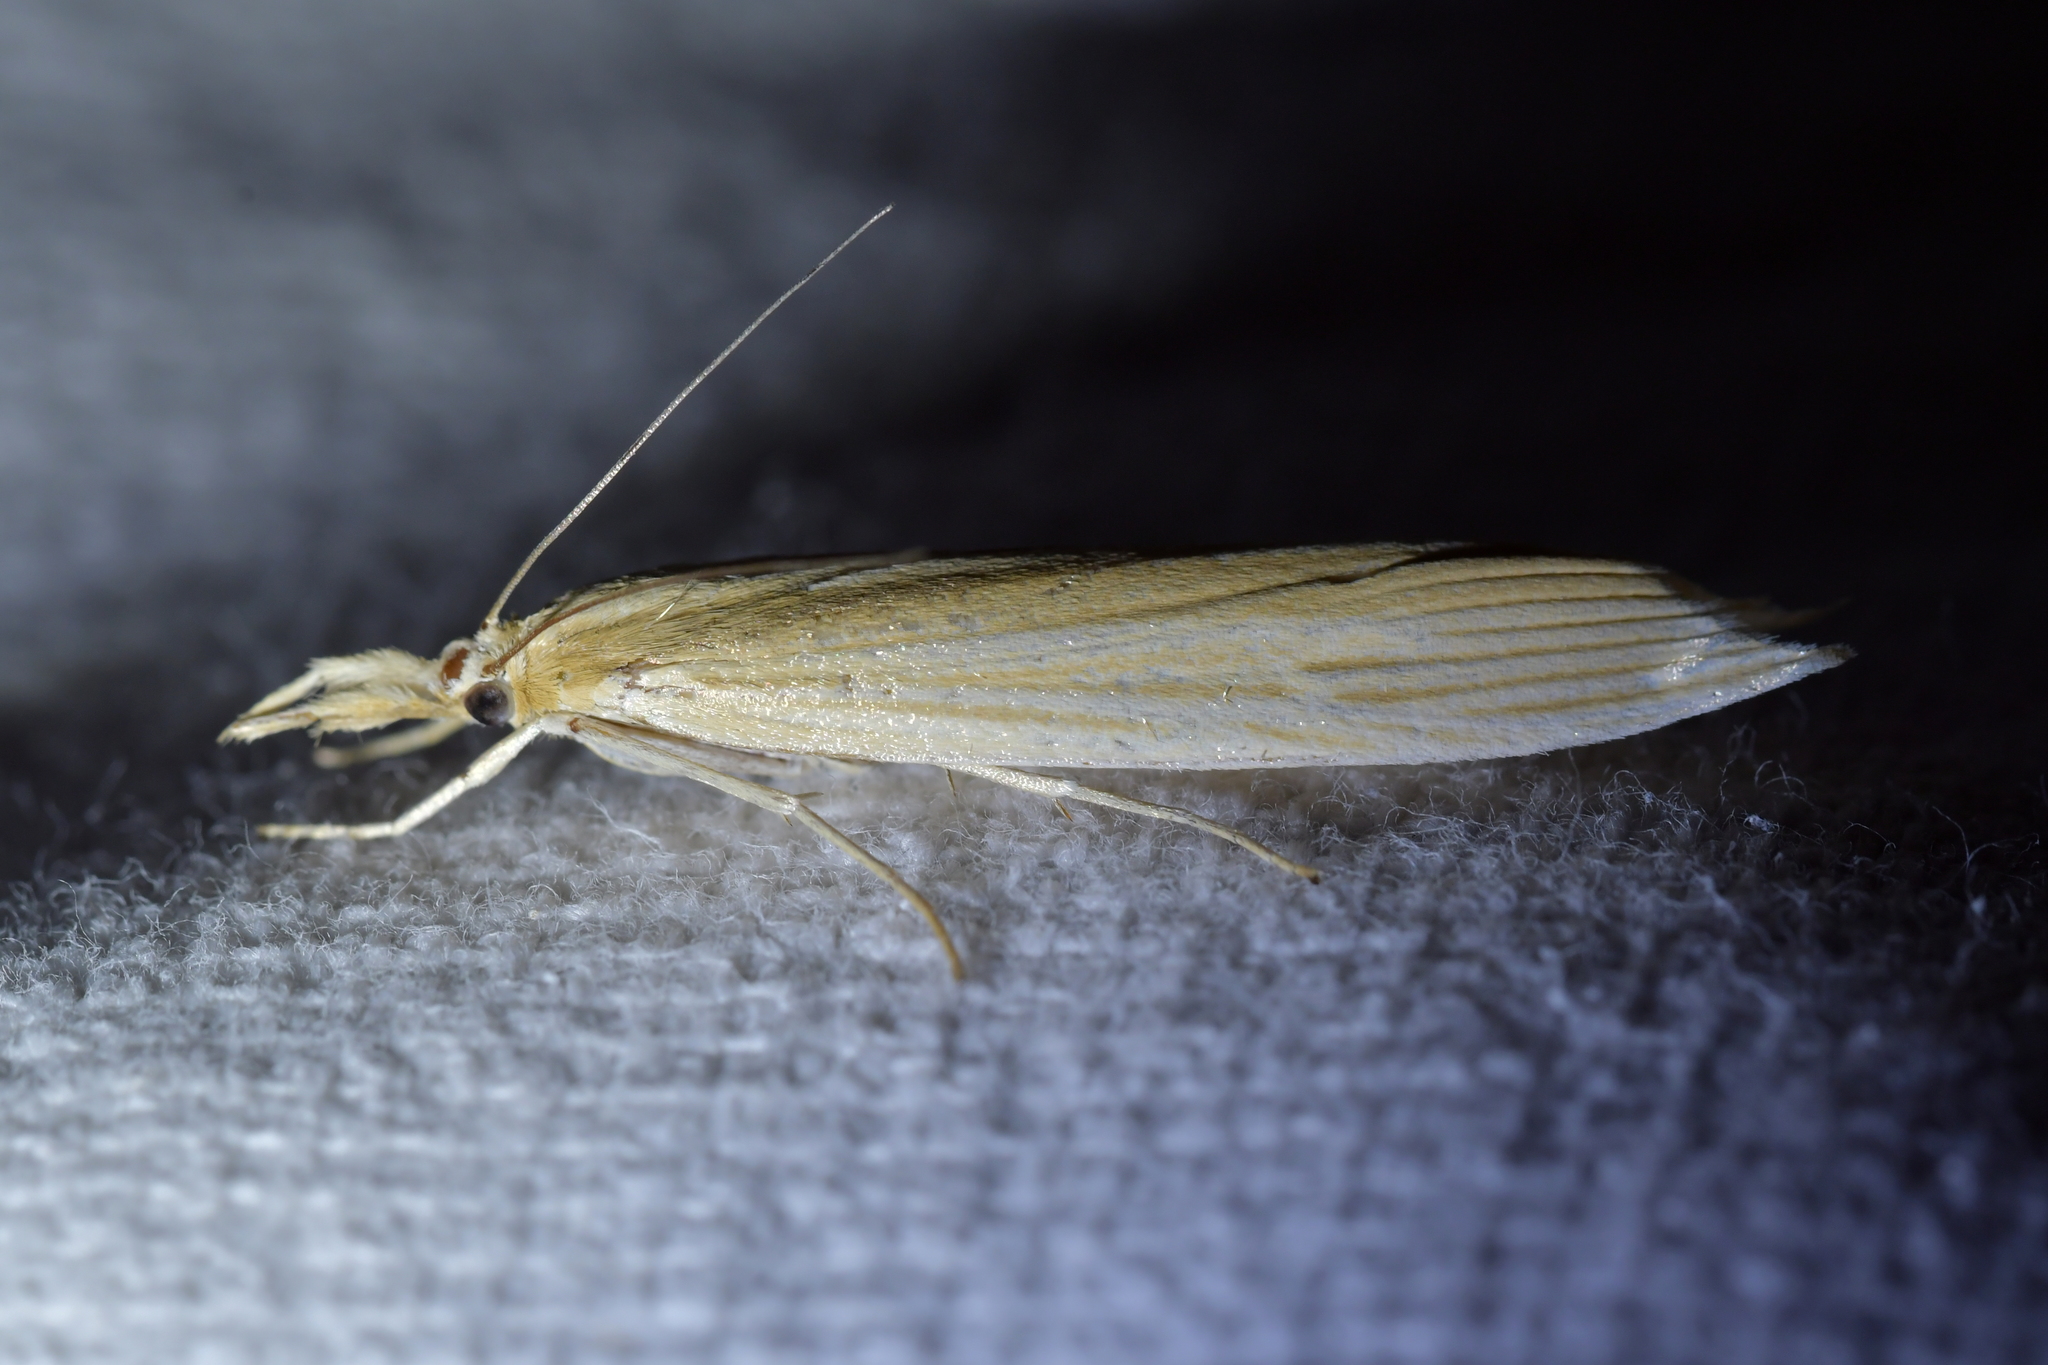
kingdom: Animalia
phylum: Arthropoda
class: Insecta
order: Lepidoptera
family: Crambidae
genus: Orocrambus
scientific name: Orocrambus angustipennis
